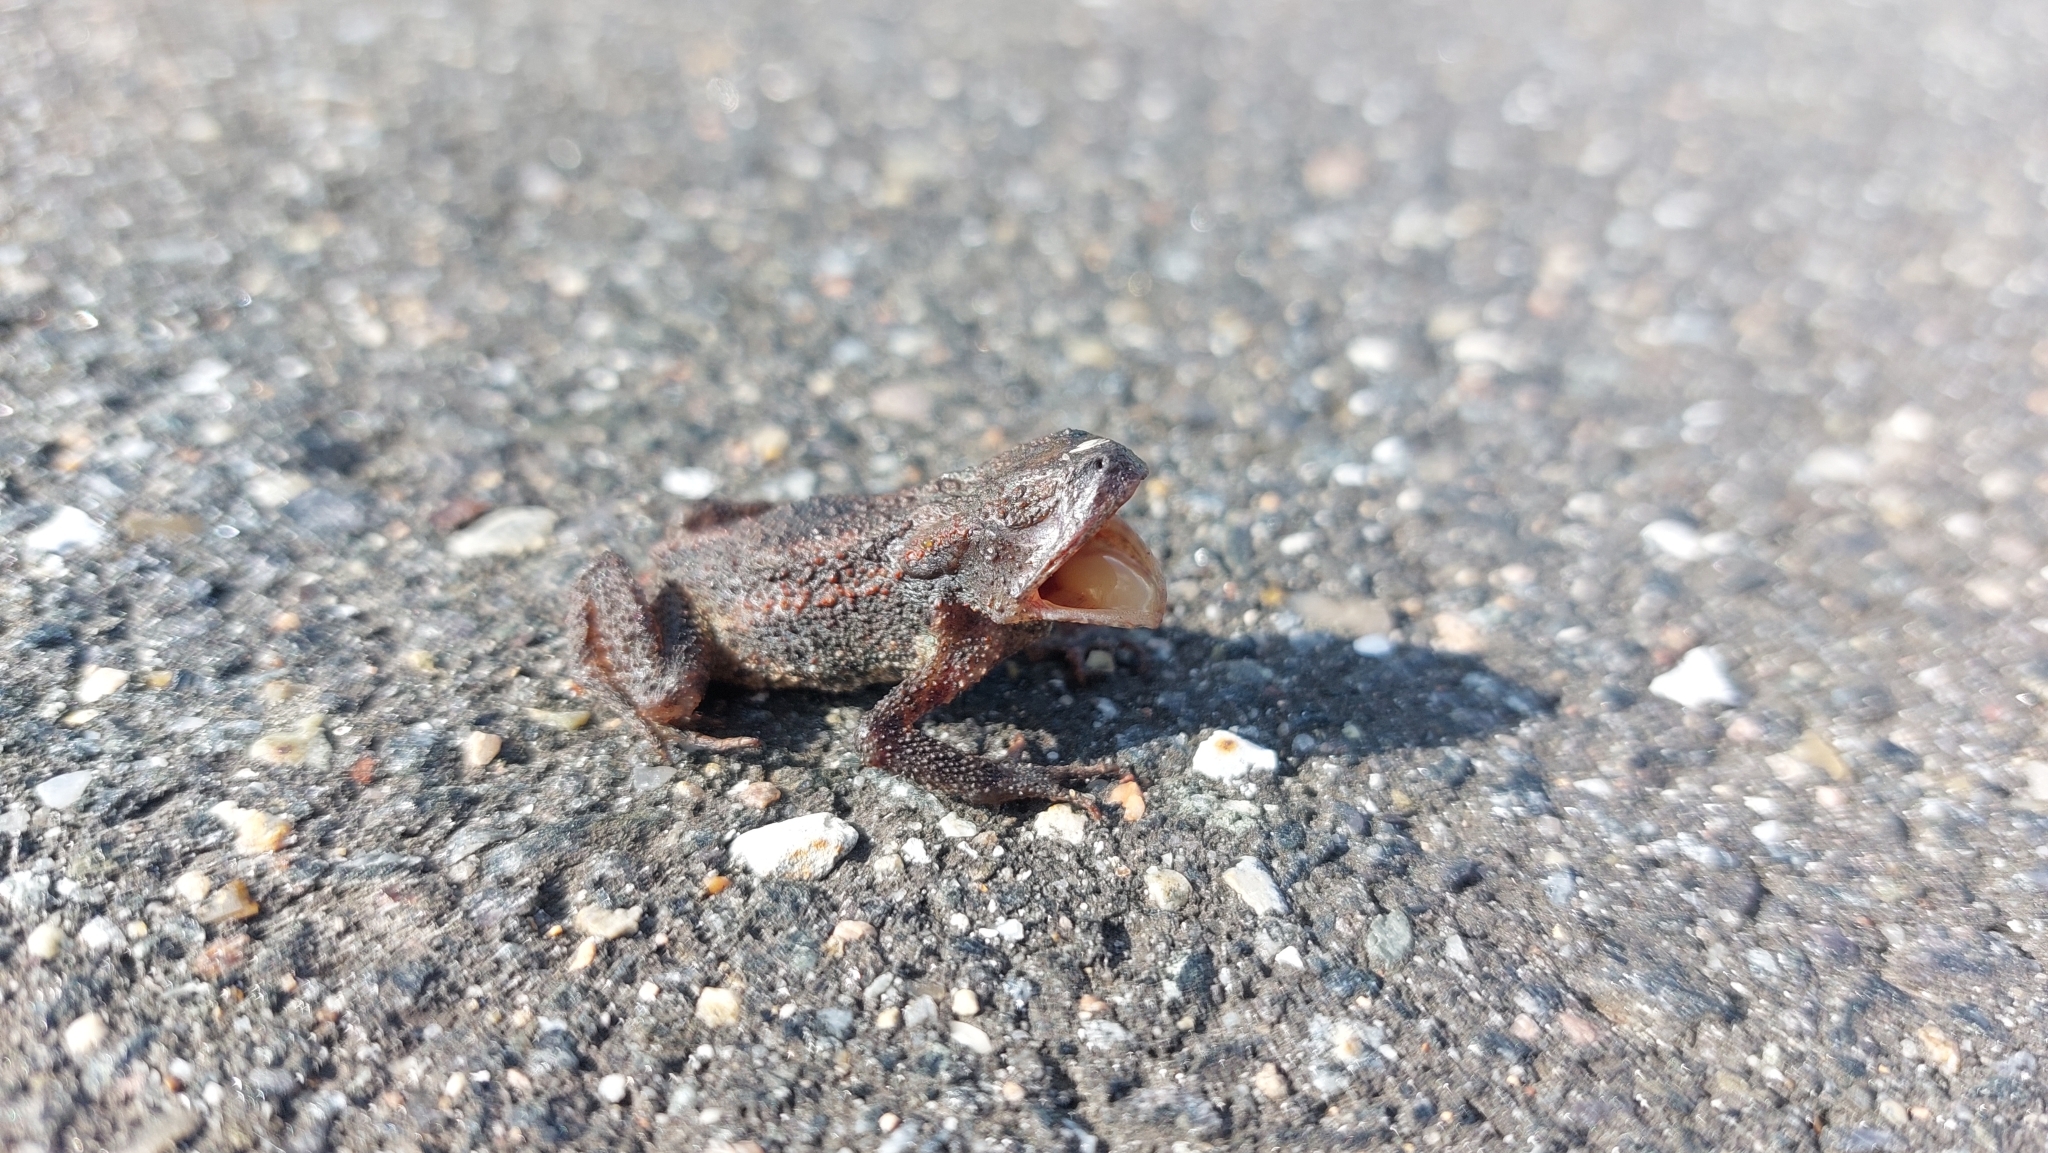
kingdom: Animalia
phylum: Chordata
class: Amphibia
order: Anura
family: Bufonidae
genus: Bufo
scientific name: Bufo bufo
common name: Common toad
